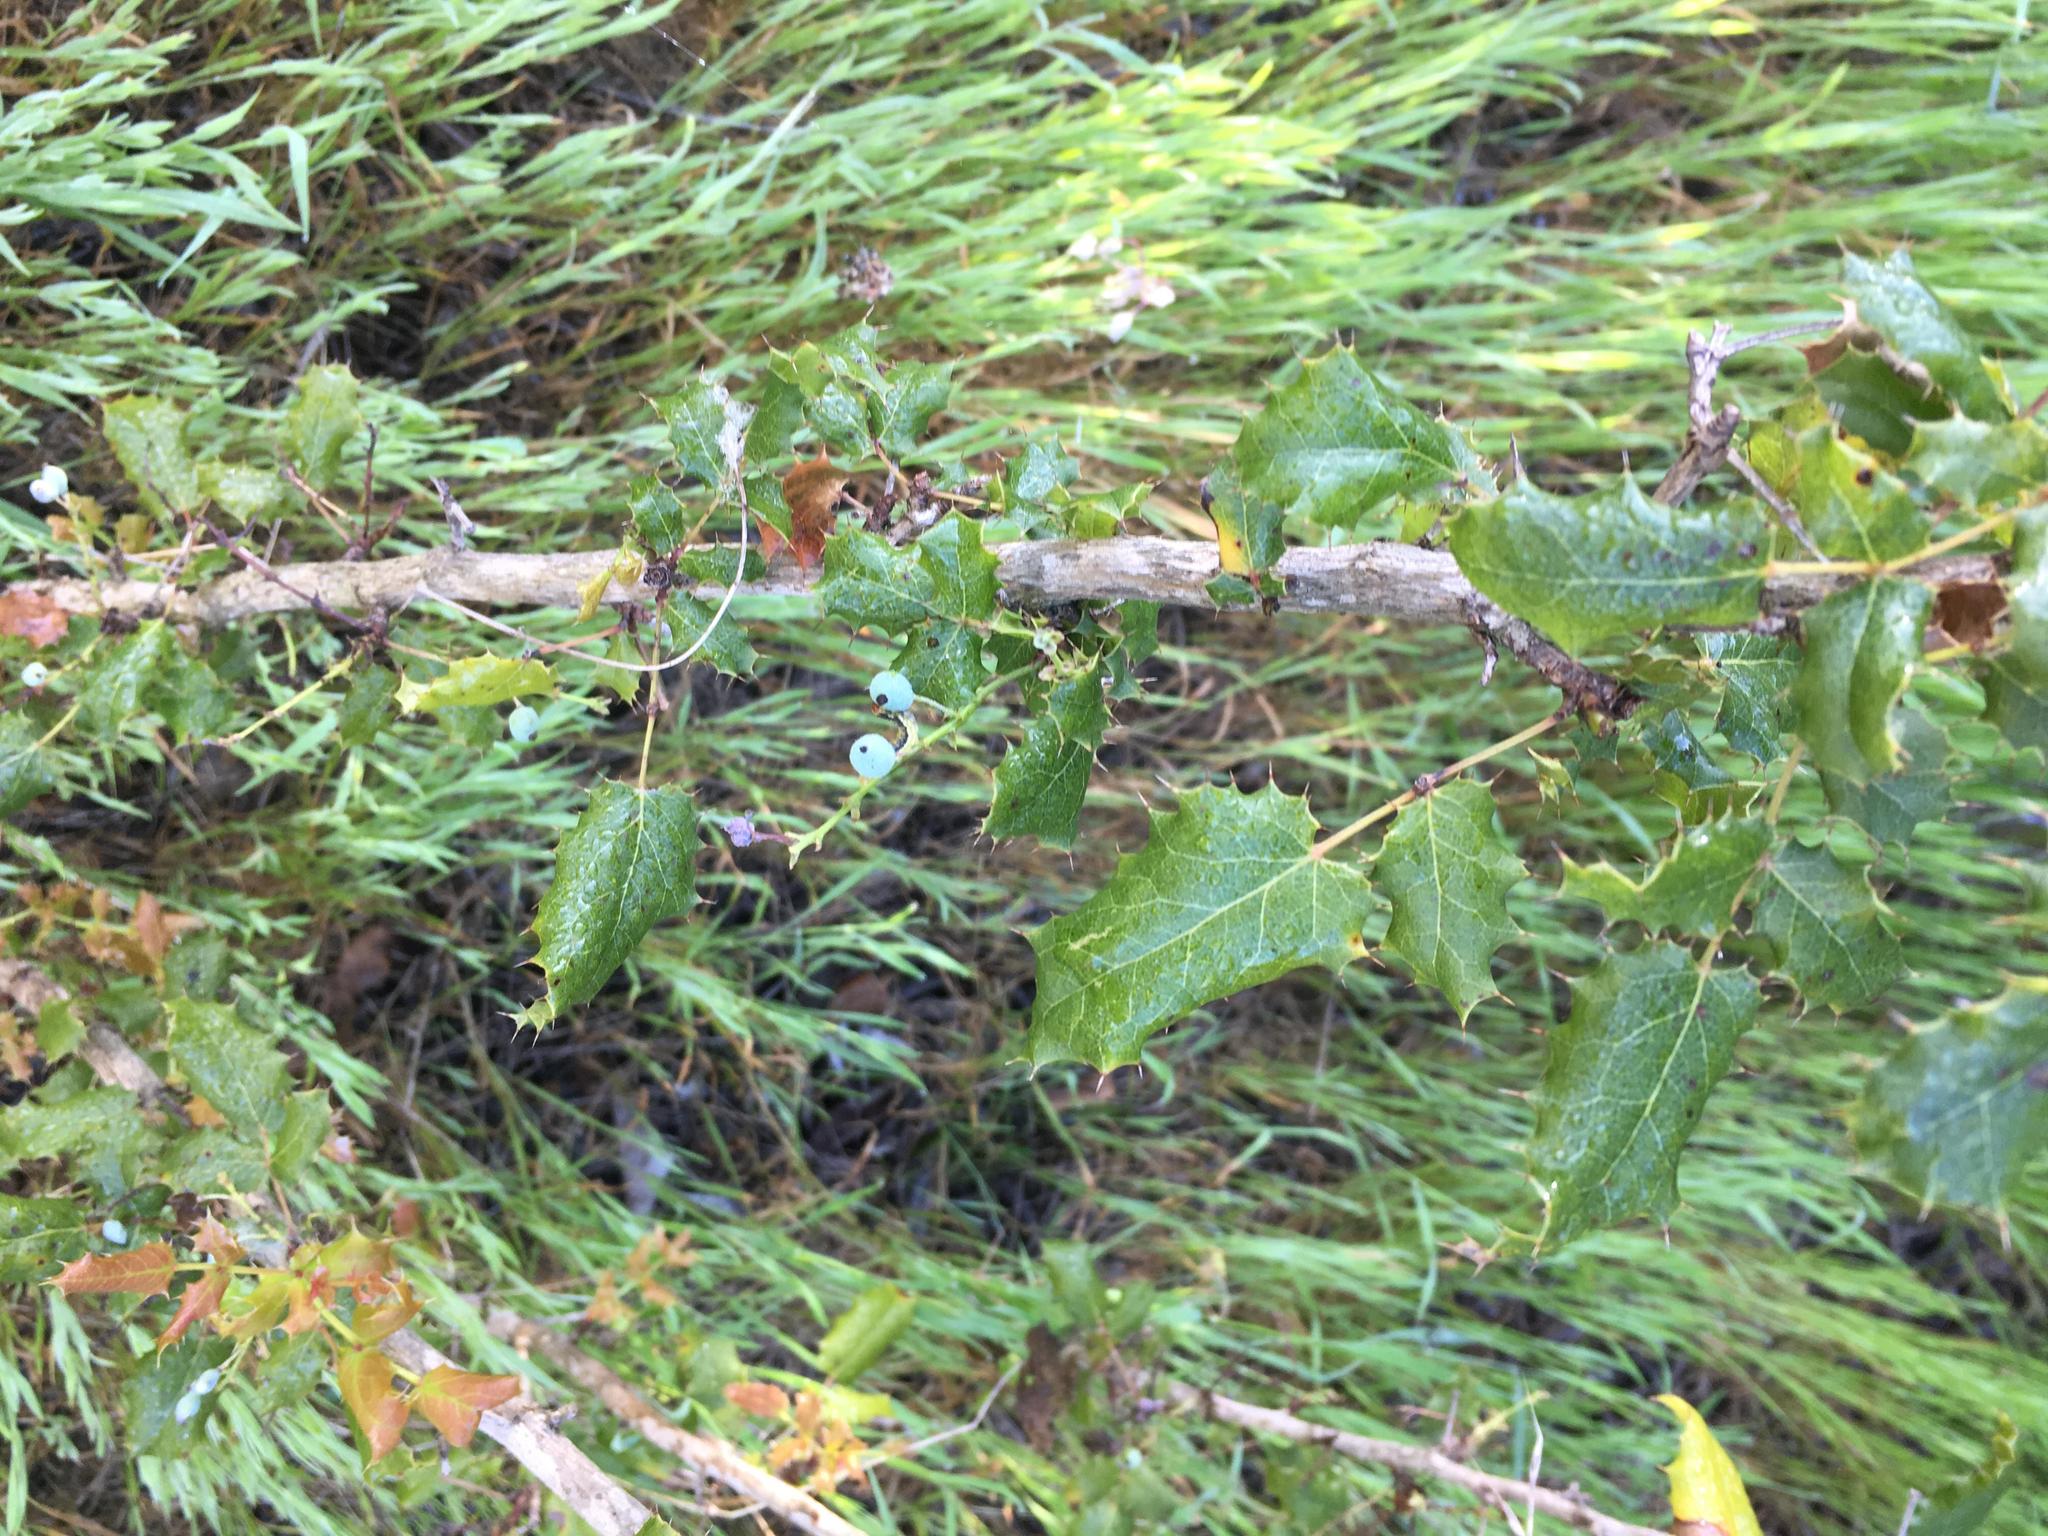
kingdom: Plantae
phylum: Tracheophyta
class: Magnoliopsida
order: Ranunculales
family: Berberidaceae
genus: Mahonia
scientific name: Mahonia
